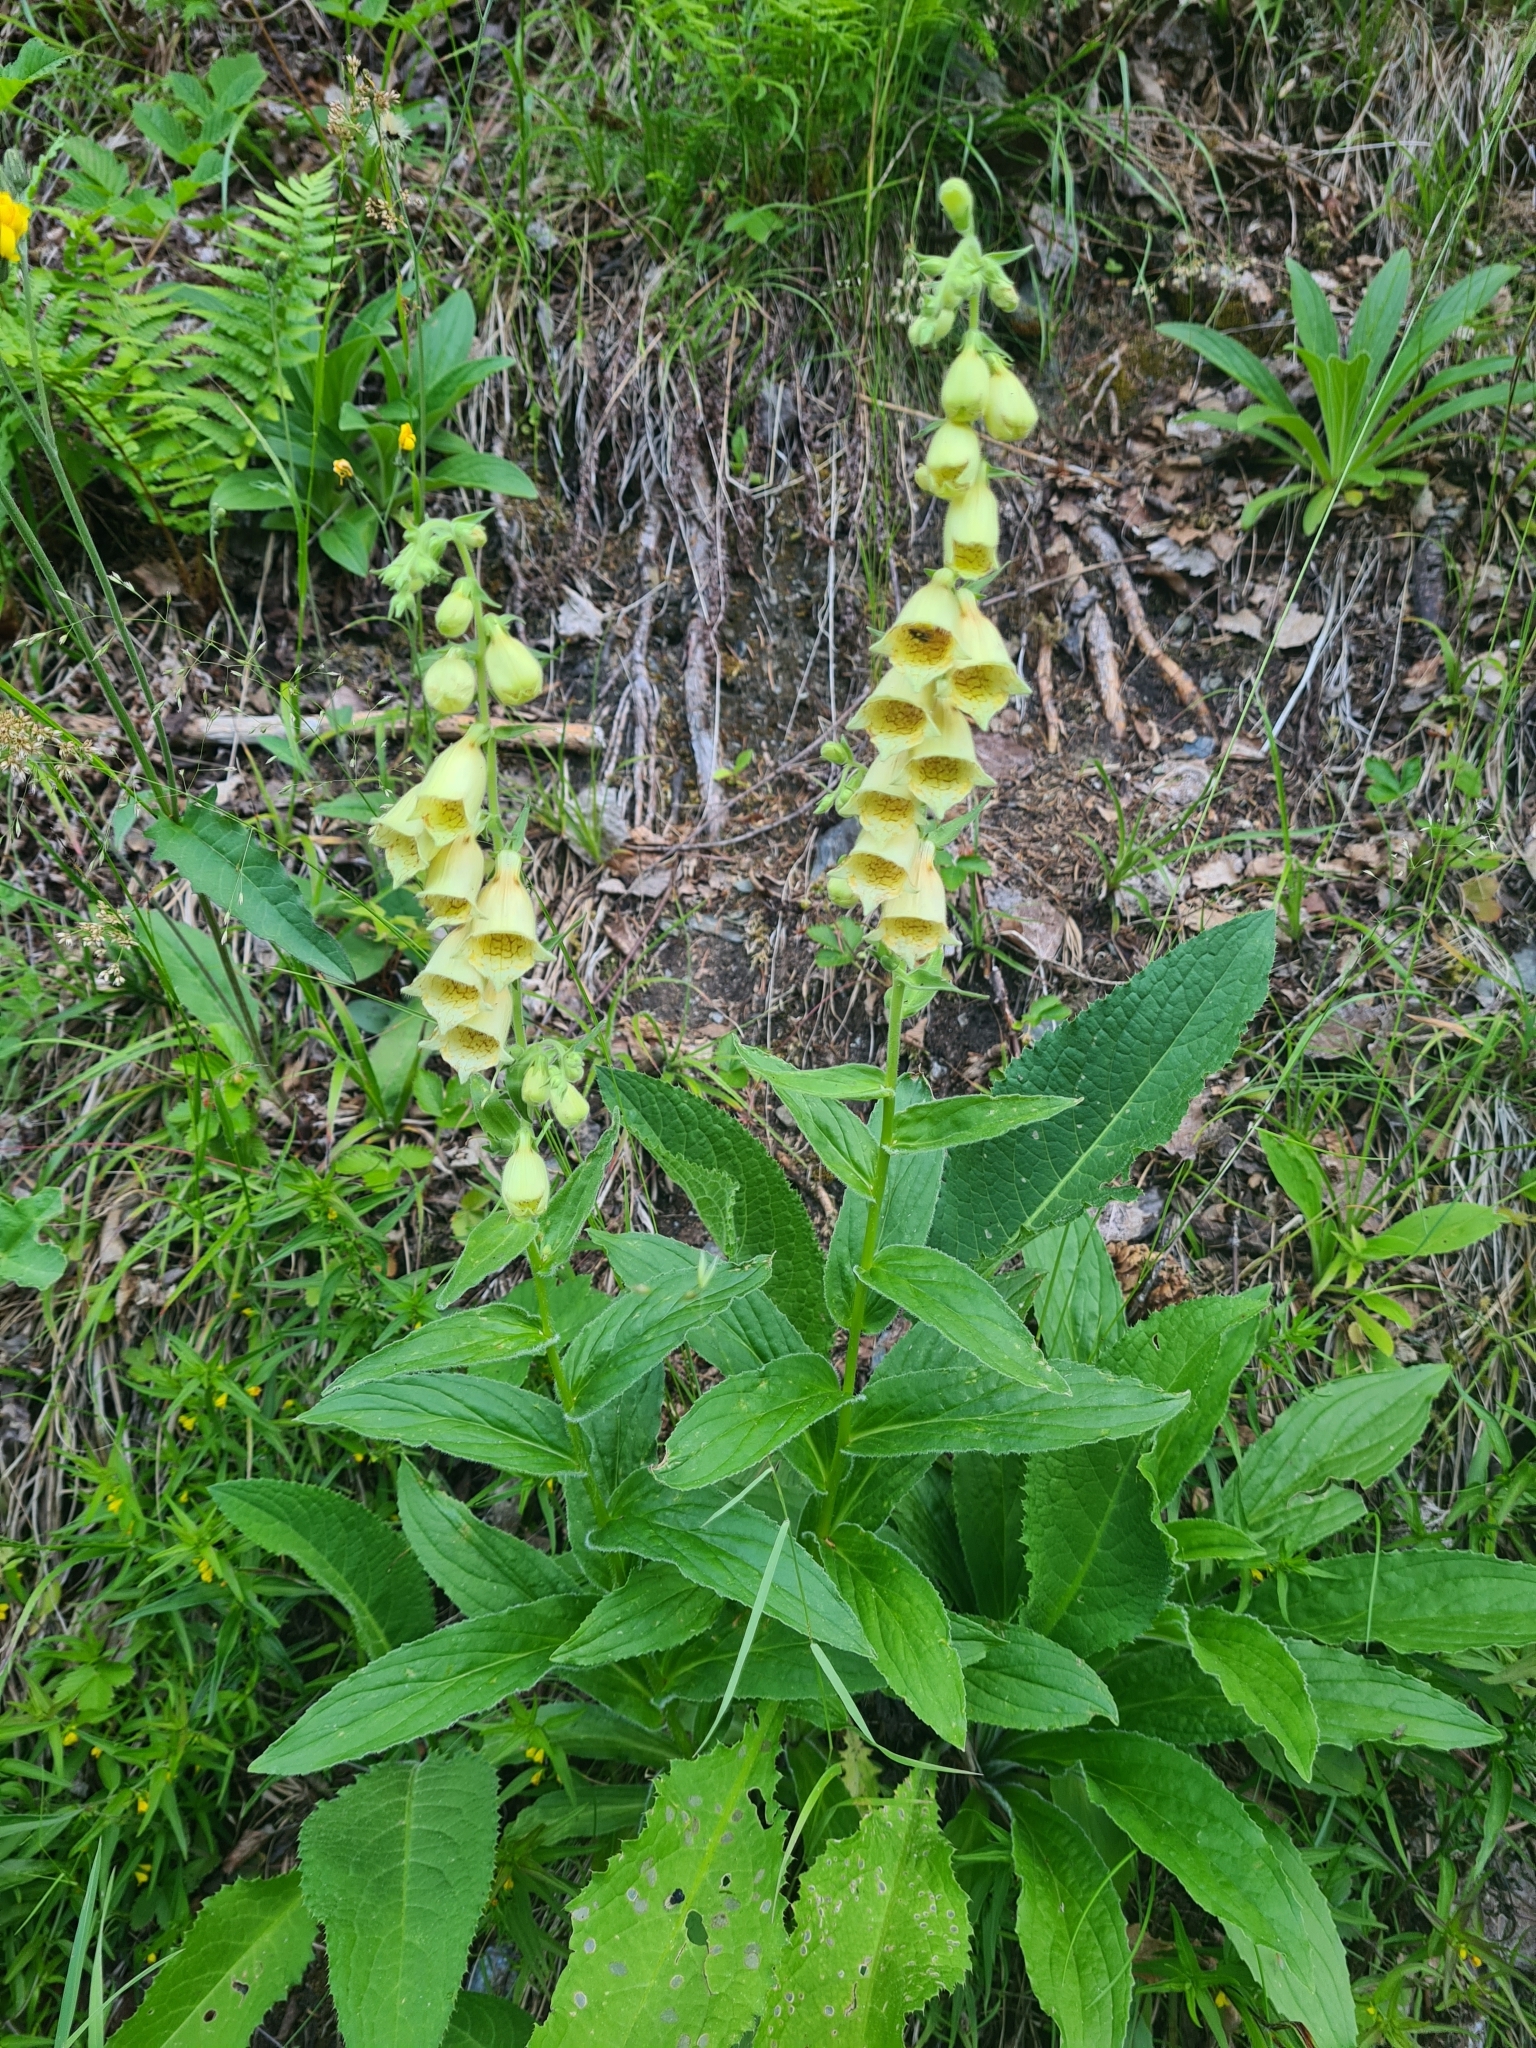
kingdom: Plantae
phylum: Tracheophyta
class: Magnoliopsida
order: Lamiales
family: Plantaginaceae
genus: Digitalis
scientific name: Digitalis grandiflora
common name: Yellow foxglove
